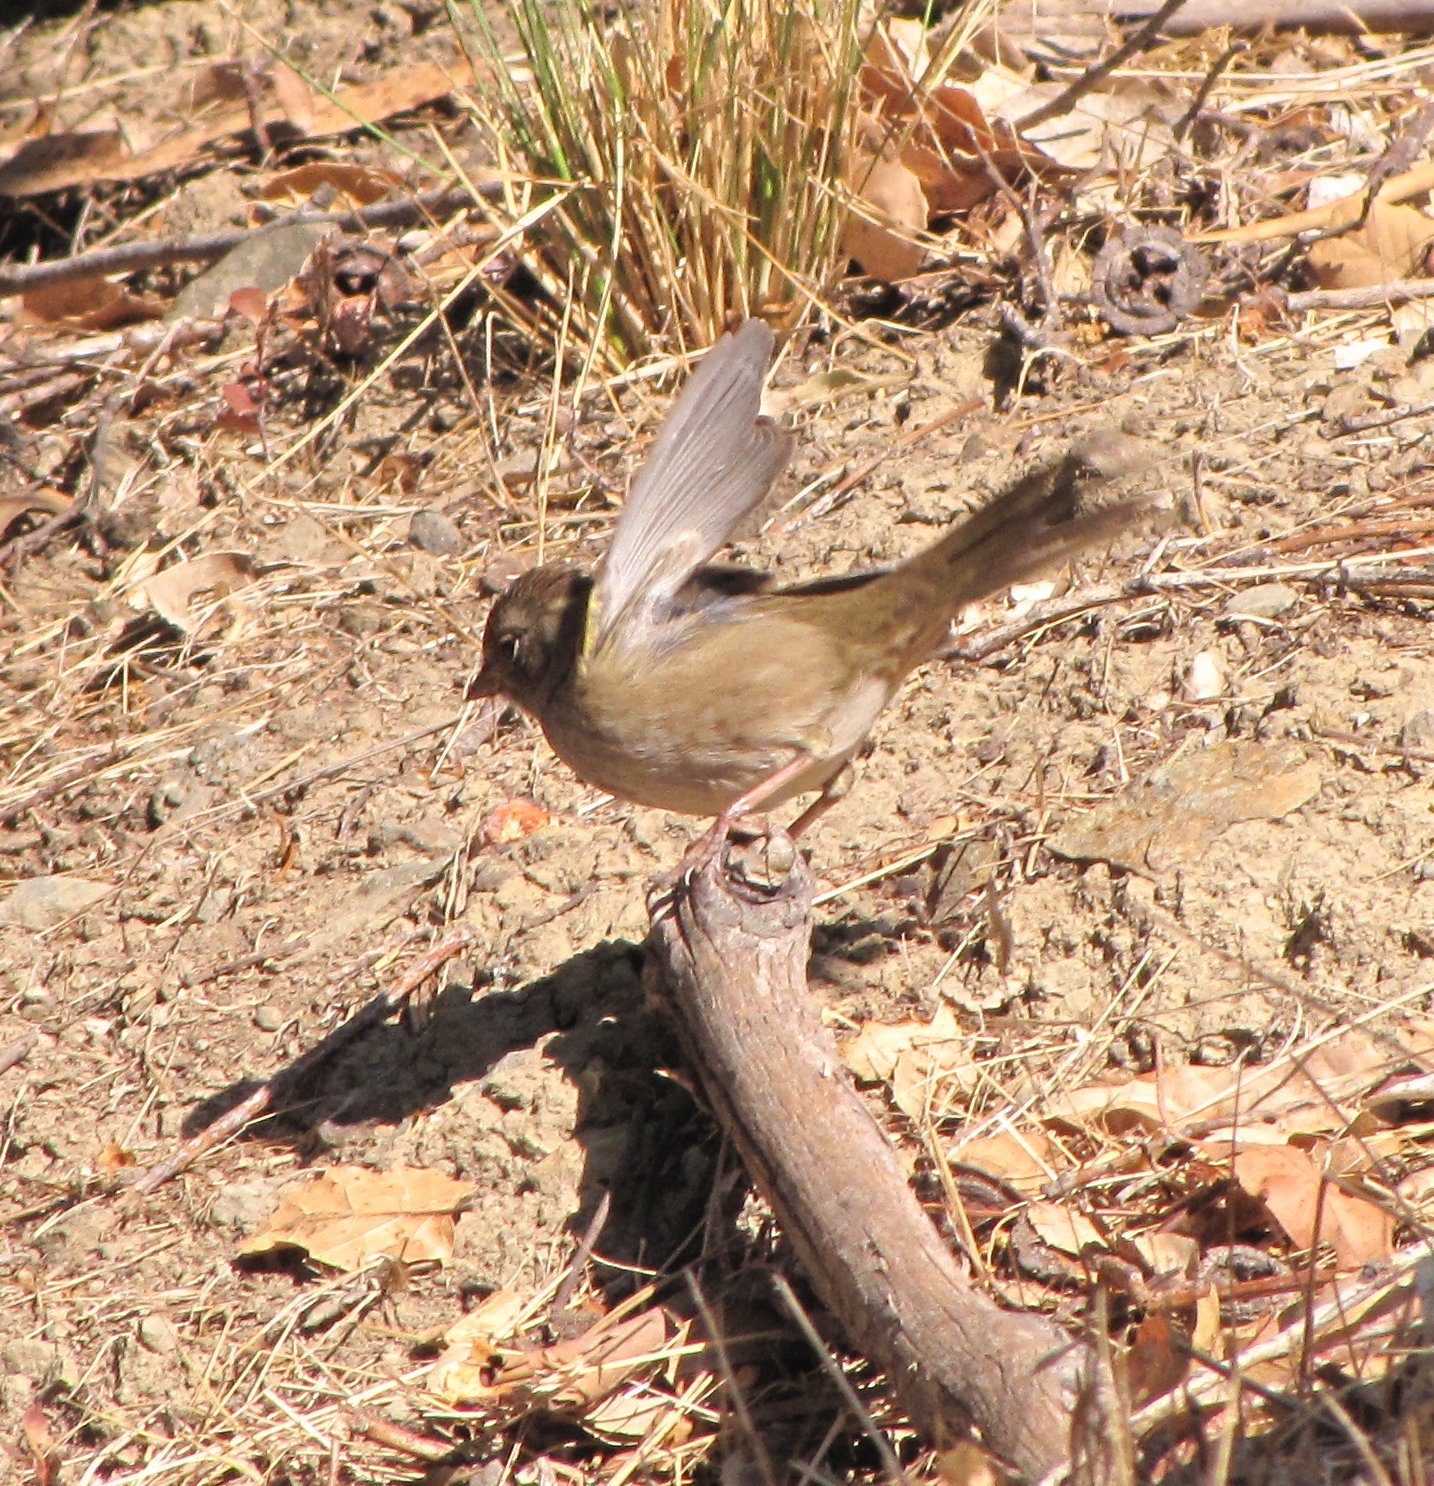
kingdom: Animalia
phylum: Chordata
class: Aves
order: Passeriformes
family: Passerellidae
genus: Zonotrichia
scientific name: Zonotrichia atricapilla
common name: Golden-crowned sparrow
